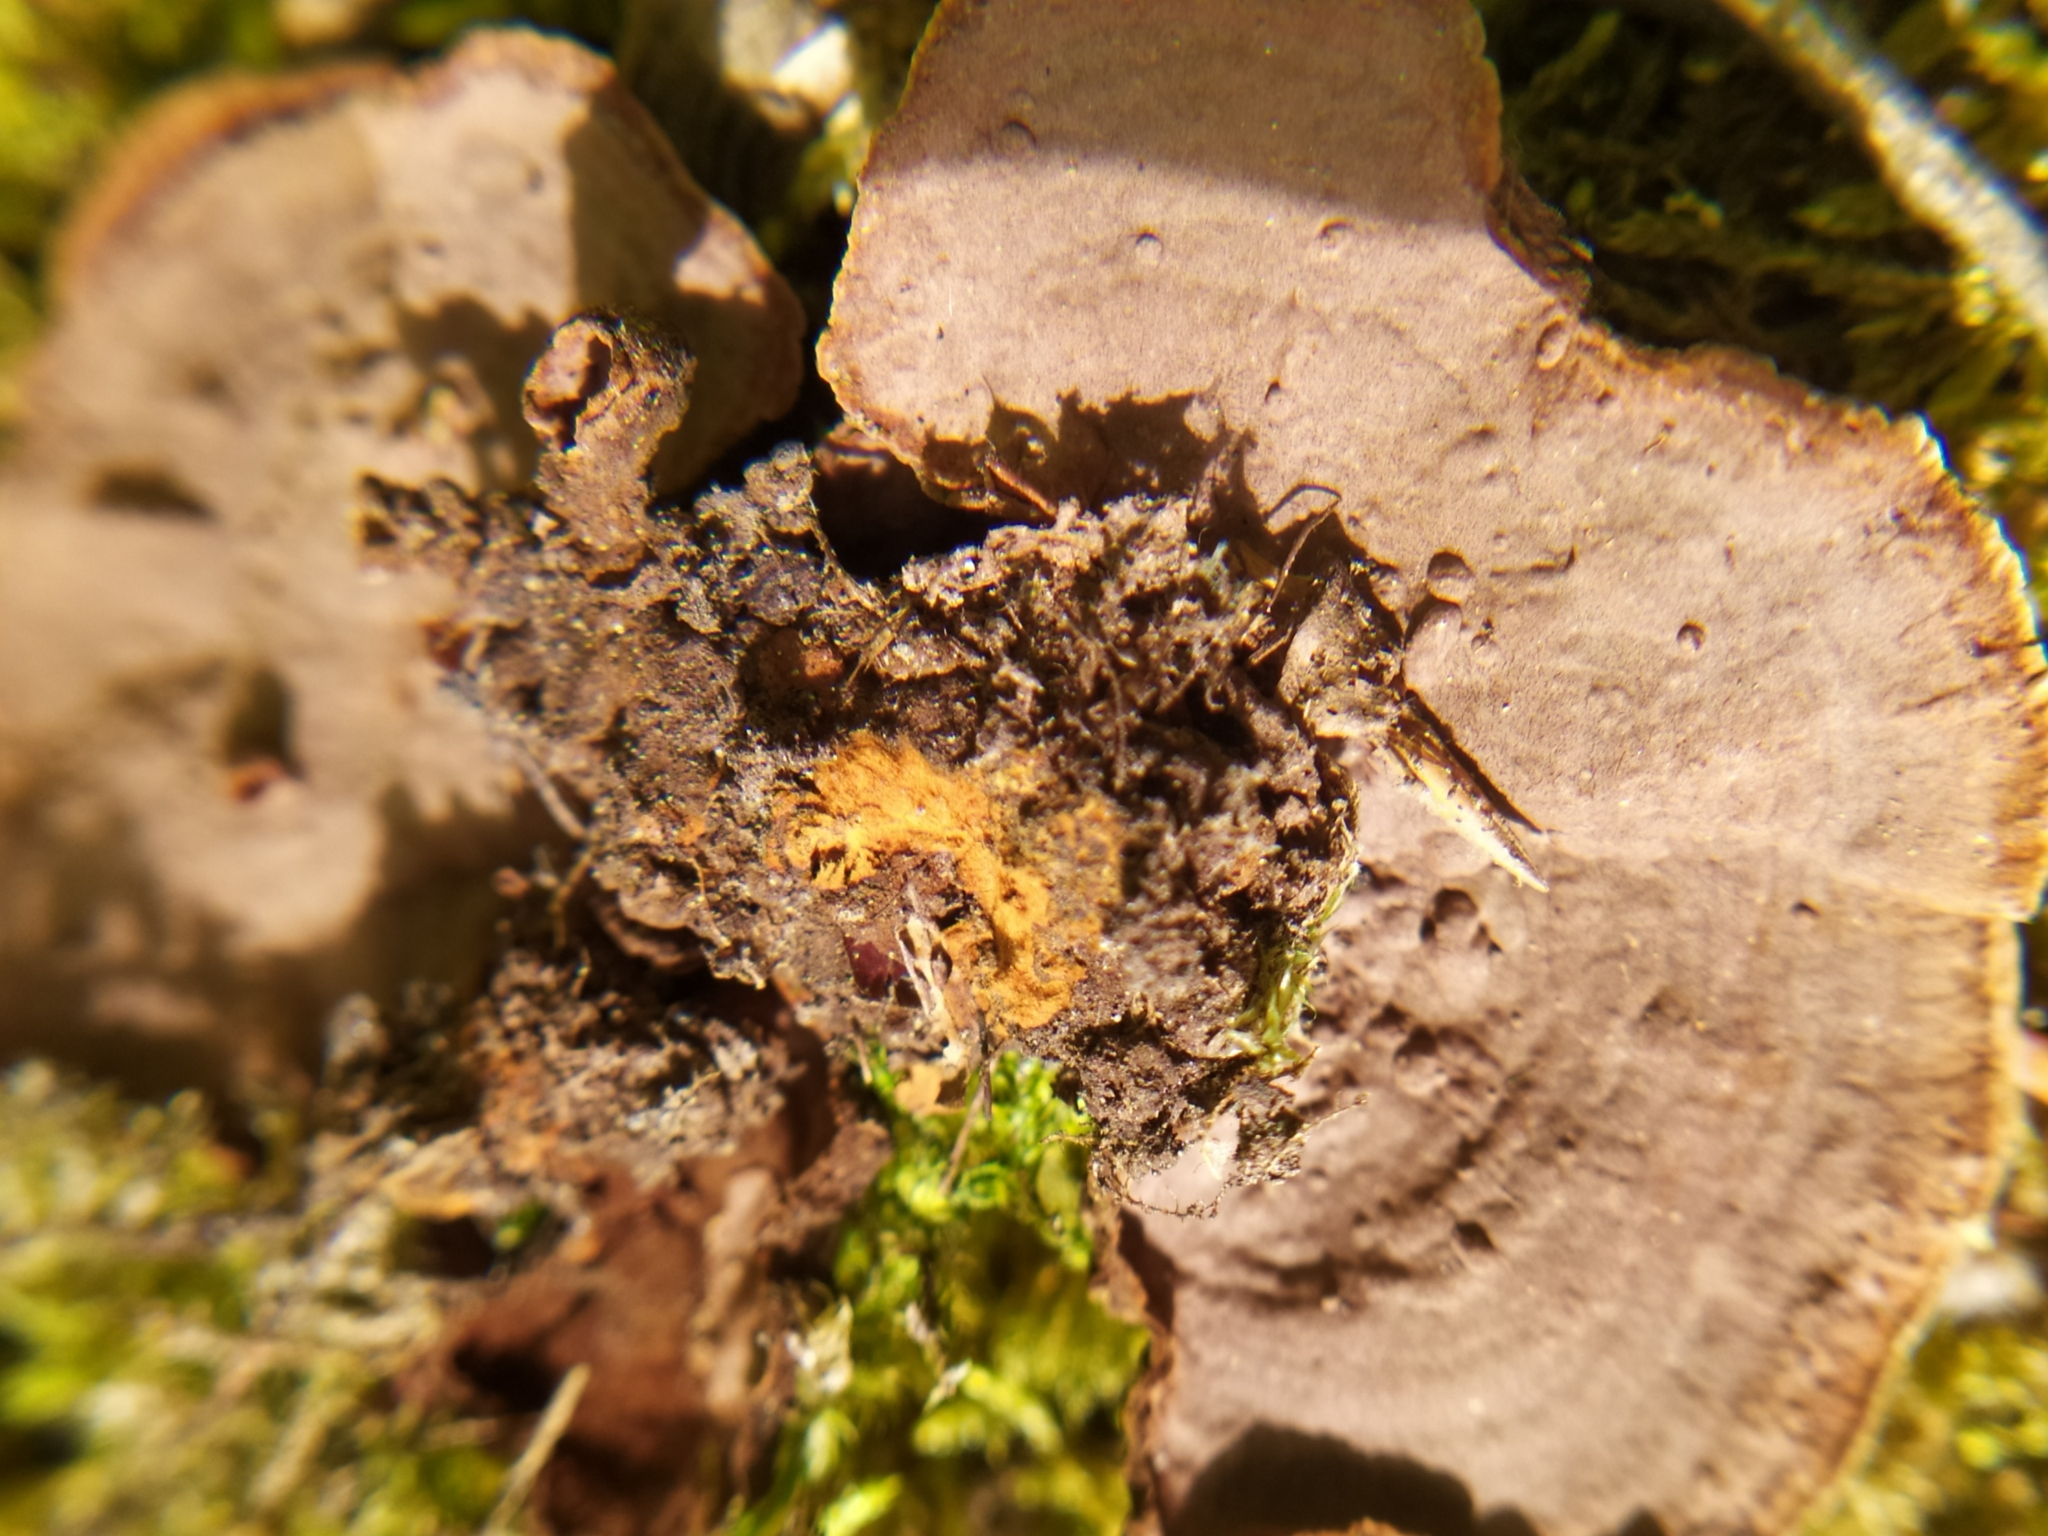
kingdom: Fungi
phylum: Basidiomycota
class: Agaricomycetes
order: Hymenochaetales
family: Hymenochaetaceae
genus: Hymenochaete
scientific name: Hymenochaete rubiginosa
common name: Oak curtain crust
